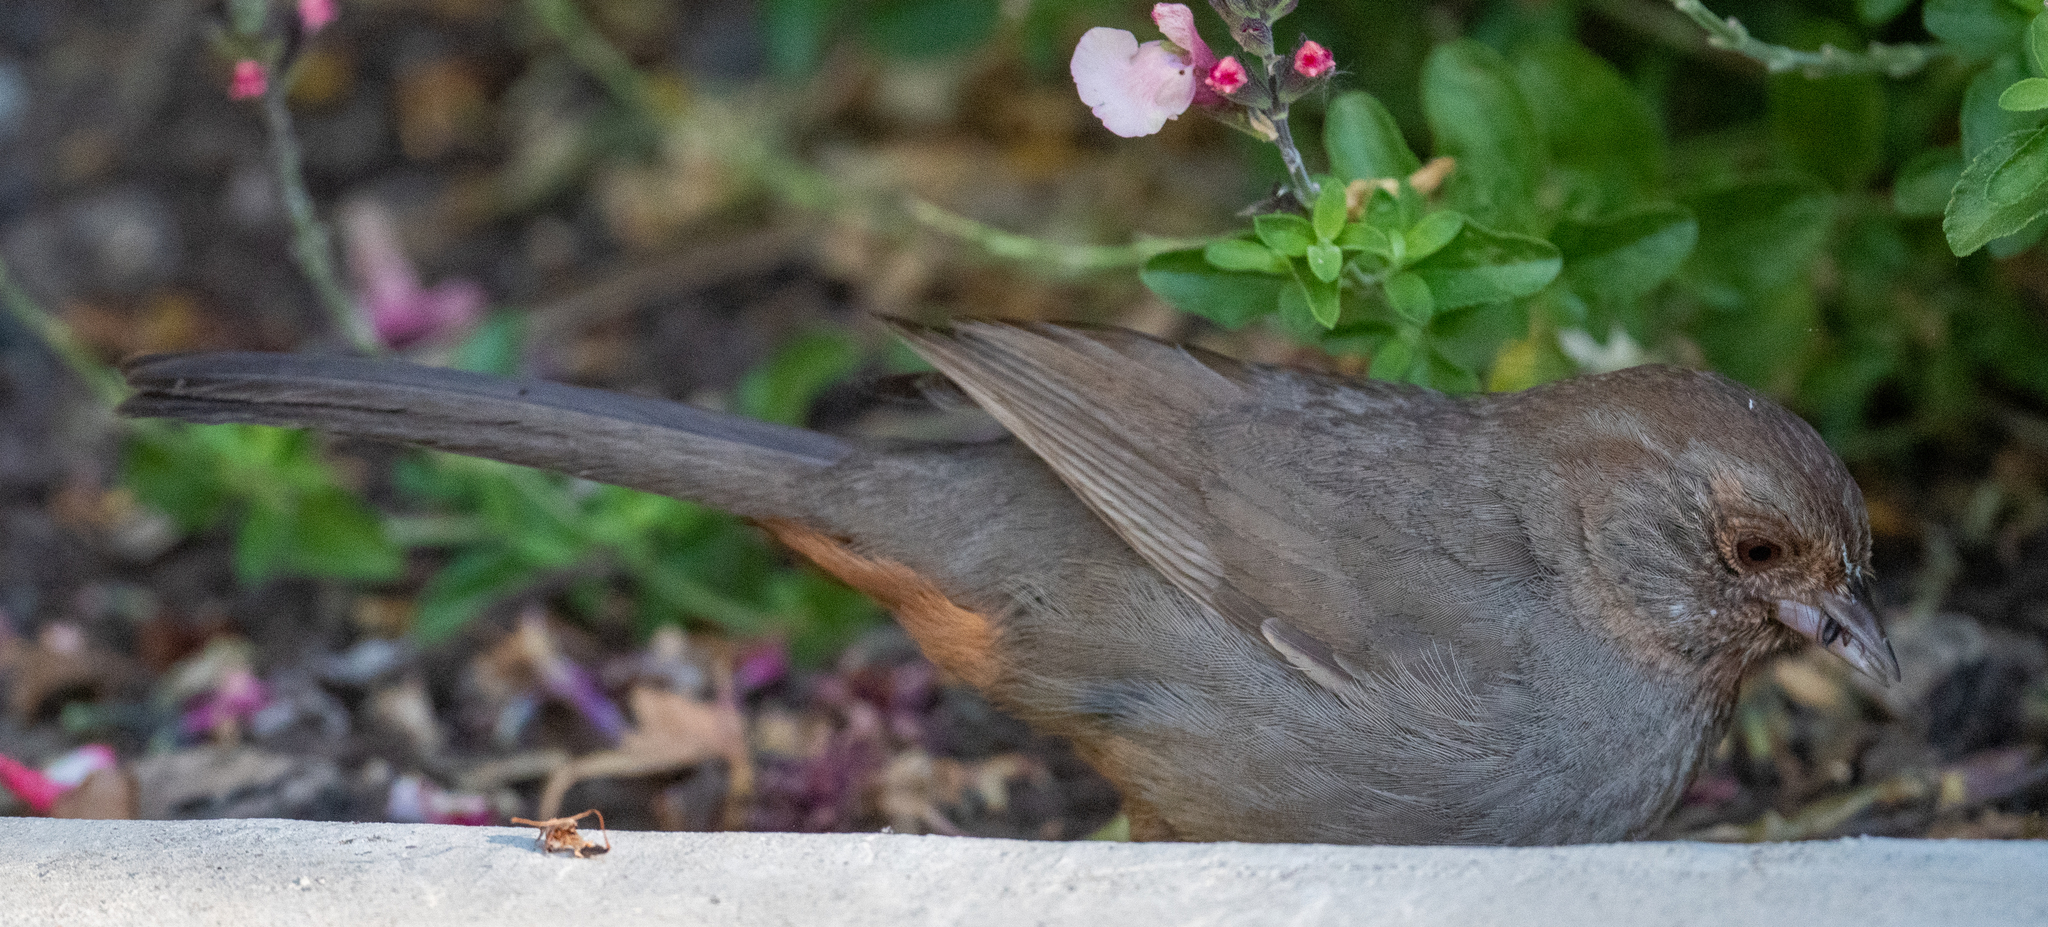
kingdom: Animalia
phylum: Chordata
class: Aves
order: Passeriformes
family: Passerellidae
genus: Melozone
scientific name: Melozone crissalis
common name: California towhee
